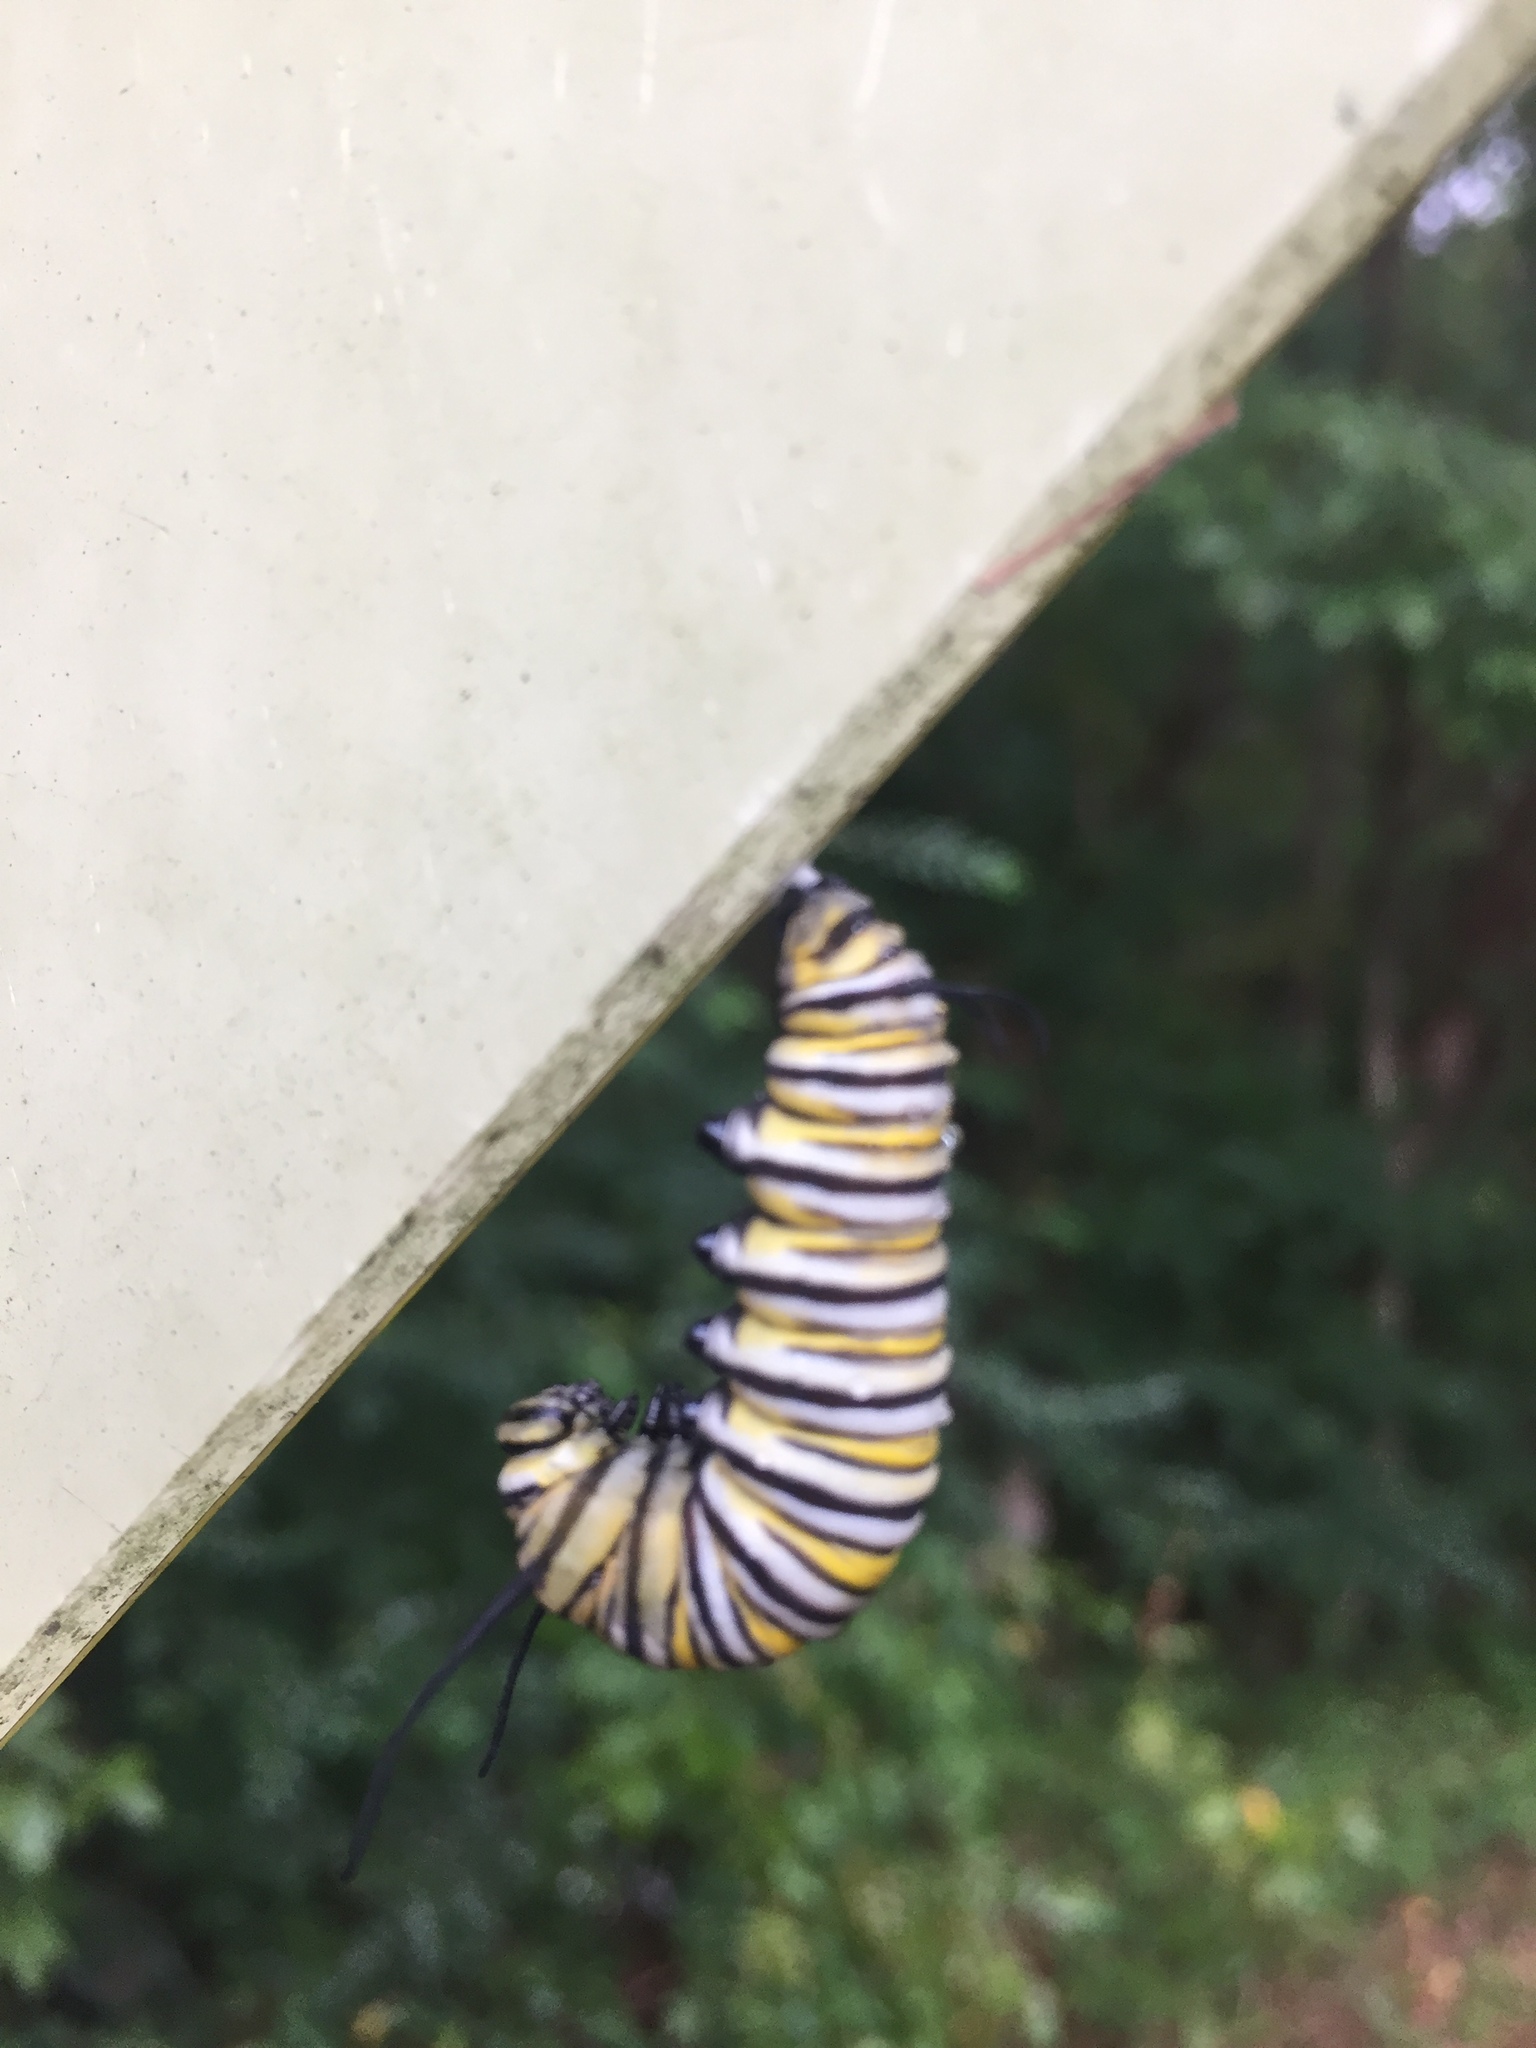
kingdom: Animalia
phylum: Arthropoda
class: Insecta
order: Lepidoptera
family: Nymphalidae
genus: Danaus
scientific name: Danaus plexippus
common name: Monarch
